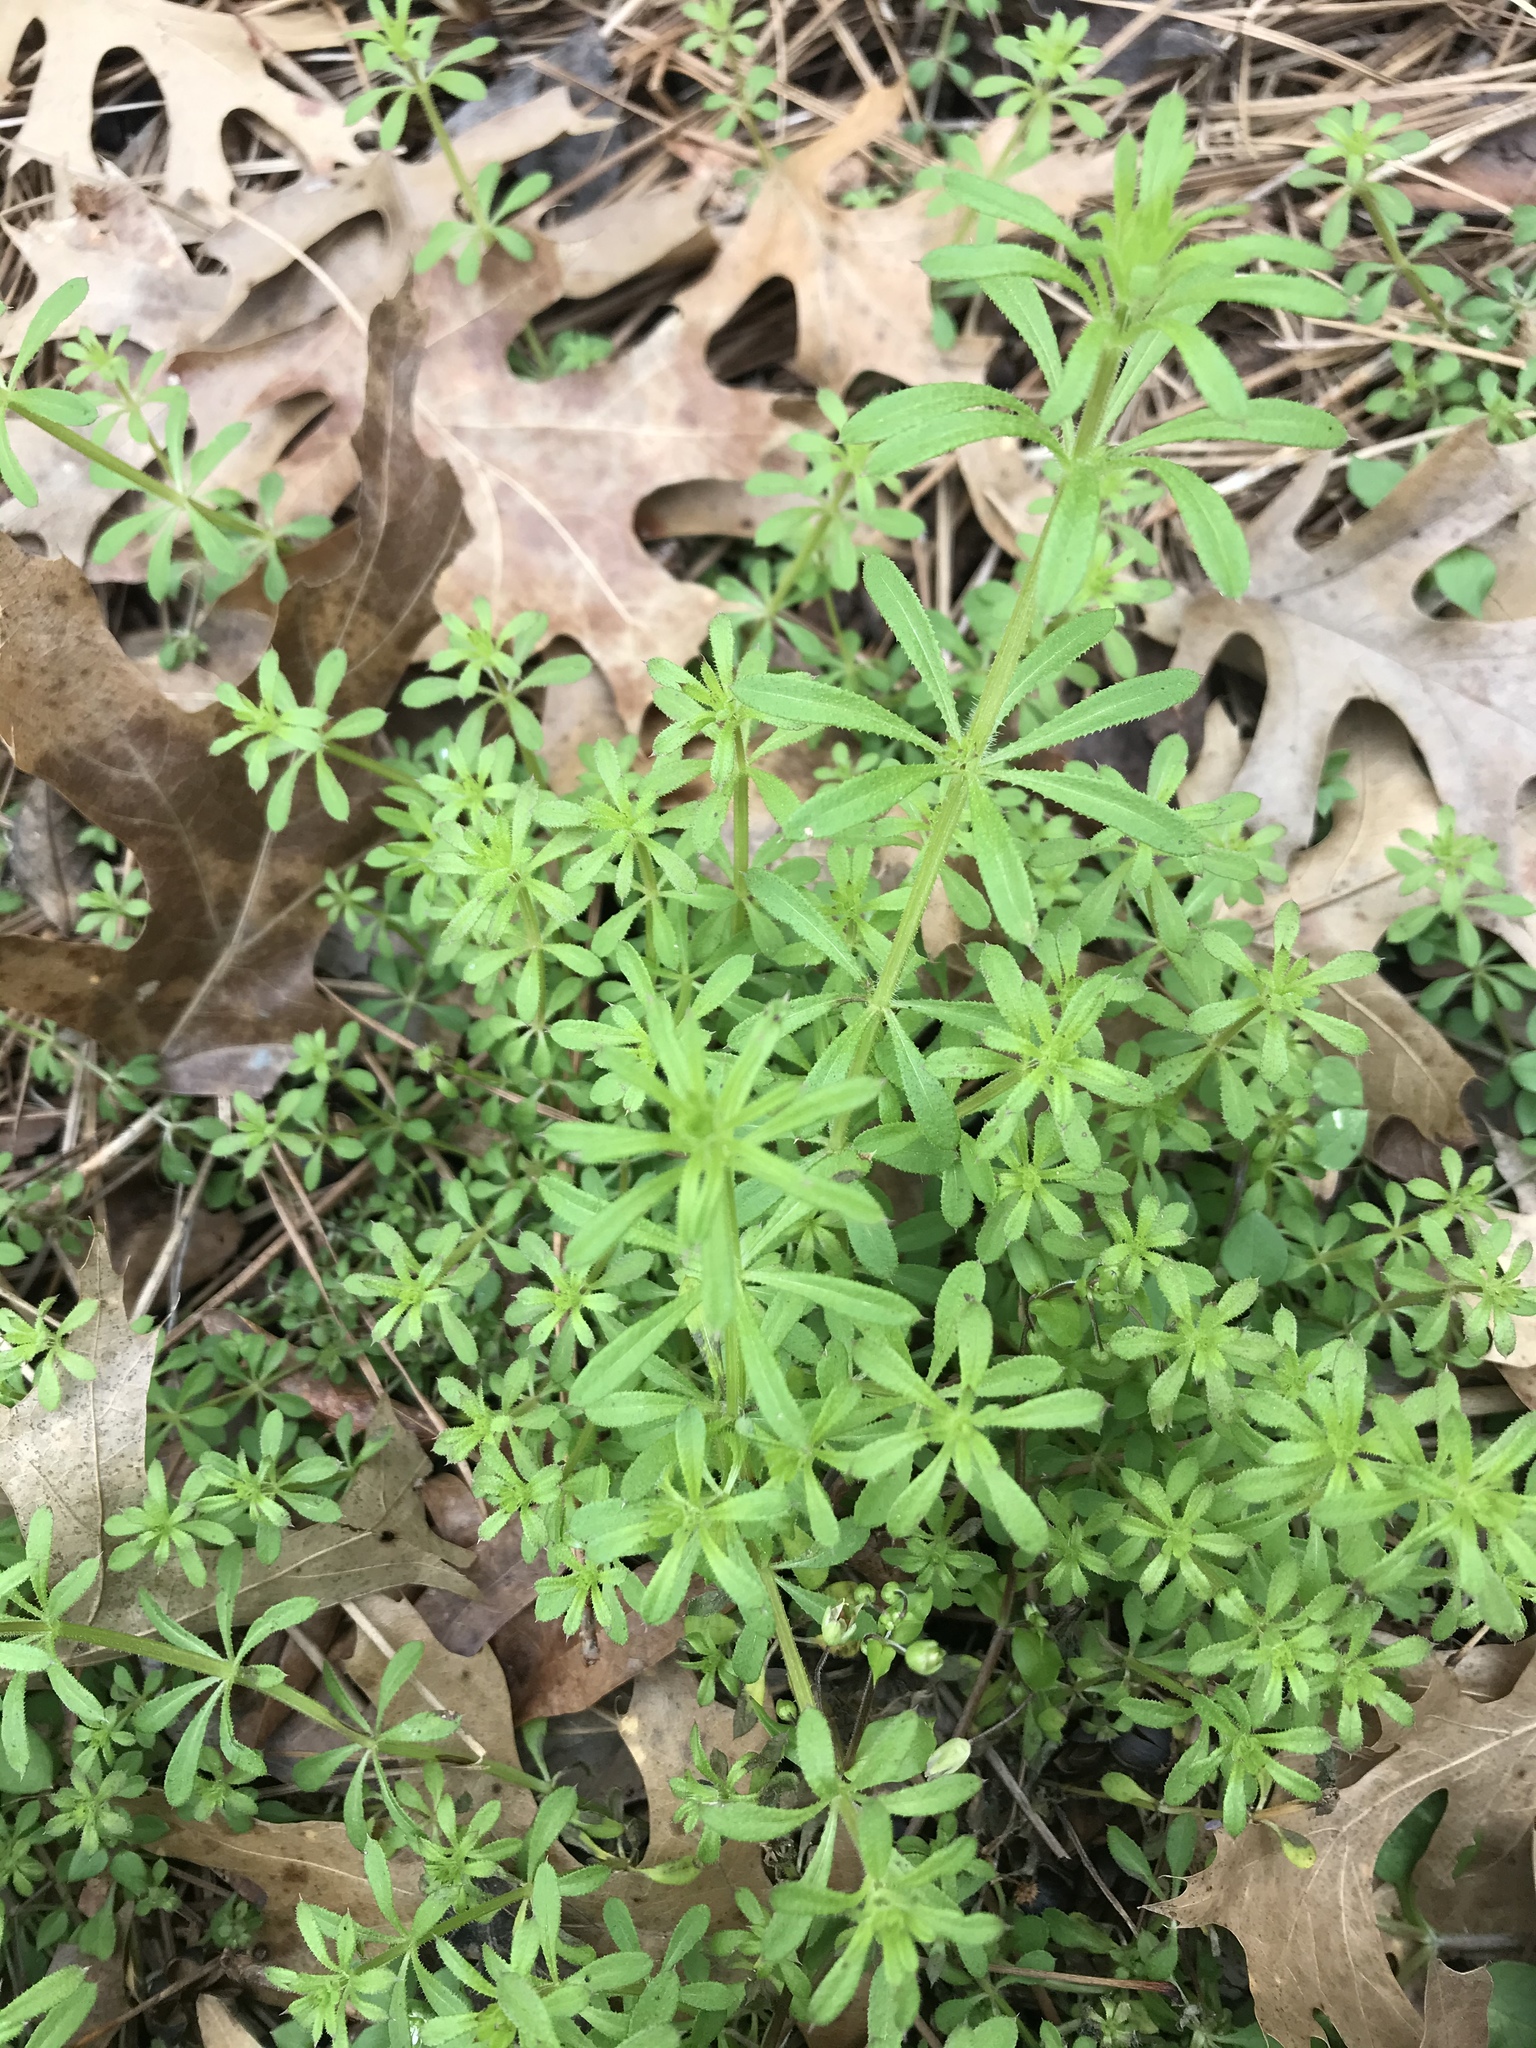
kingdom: Plantae
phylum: Tracheophyta
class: Magnoliopsida
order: Gentianales
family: Rubiaceae
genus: Galium
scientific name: Galium aparine
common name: Cleavers
